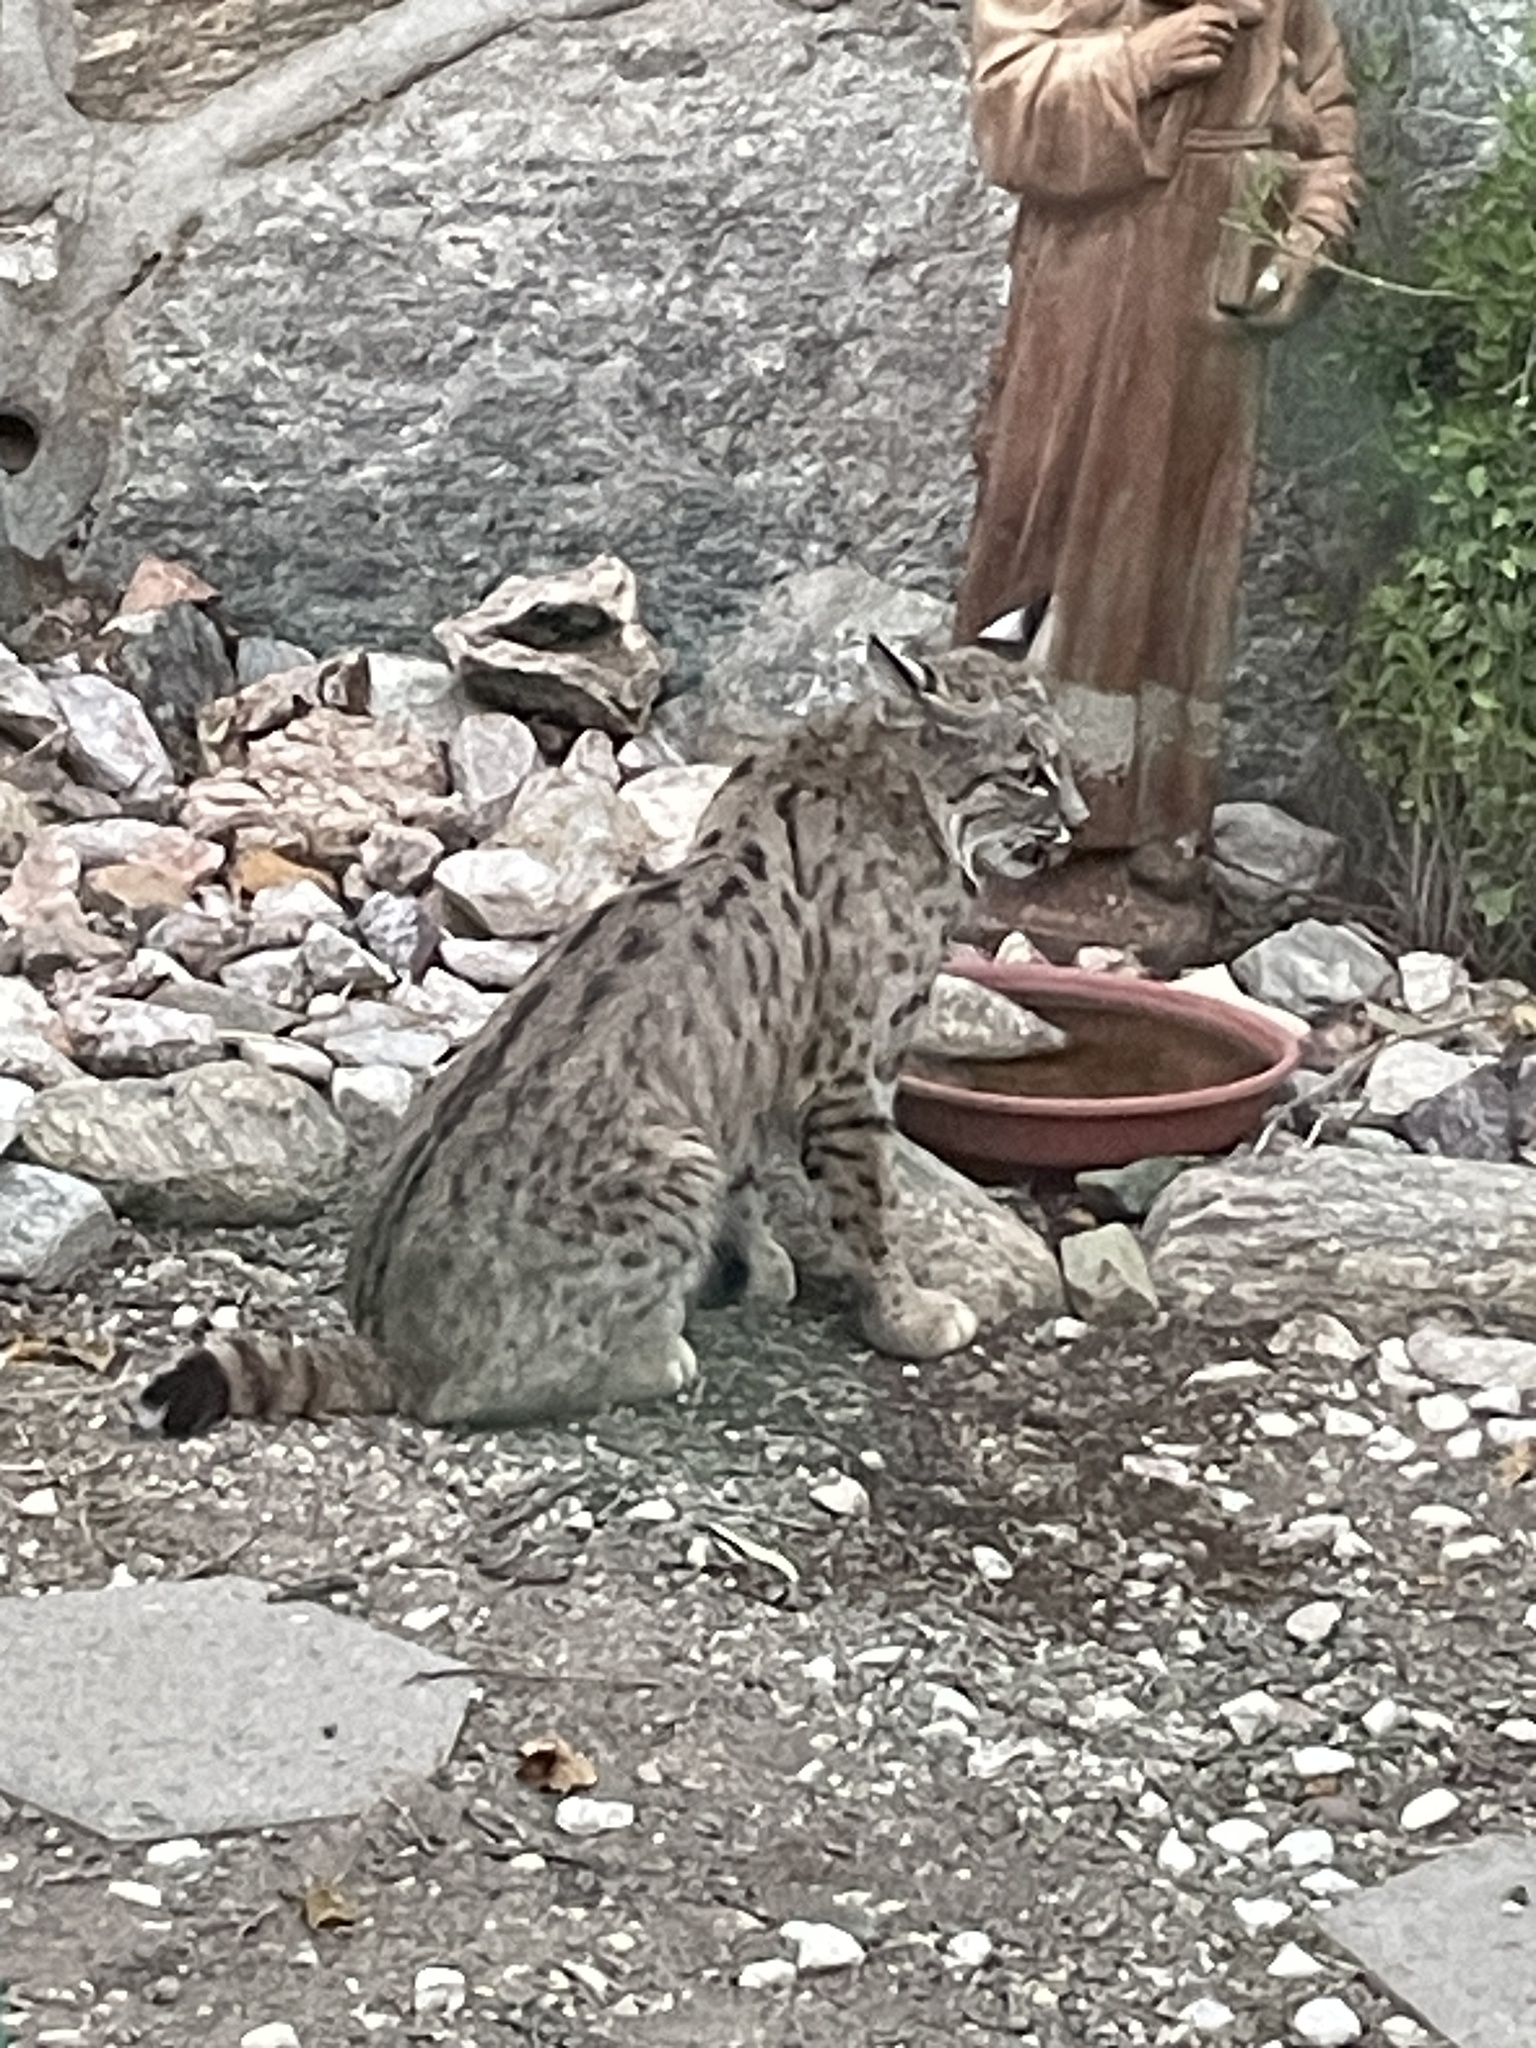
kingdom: Animalia
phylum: Chordata
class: Mammalia
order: Carnivora
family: Felidae
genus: Lynx
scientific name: Lynx rufus
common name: Bobcat
